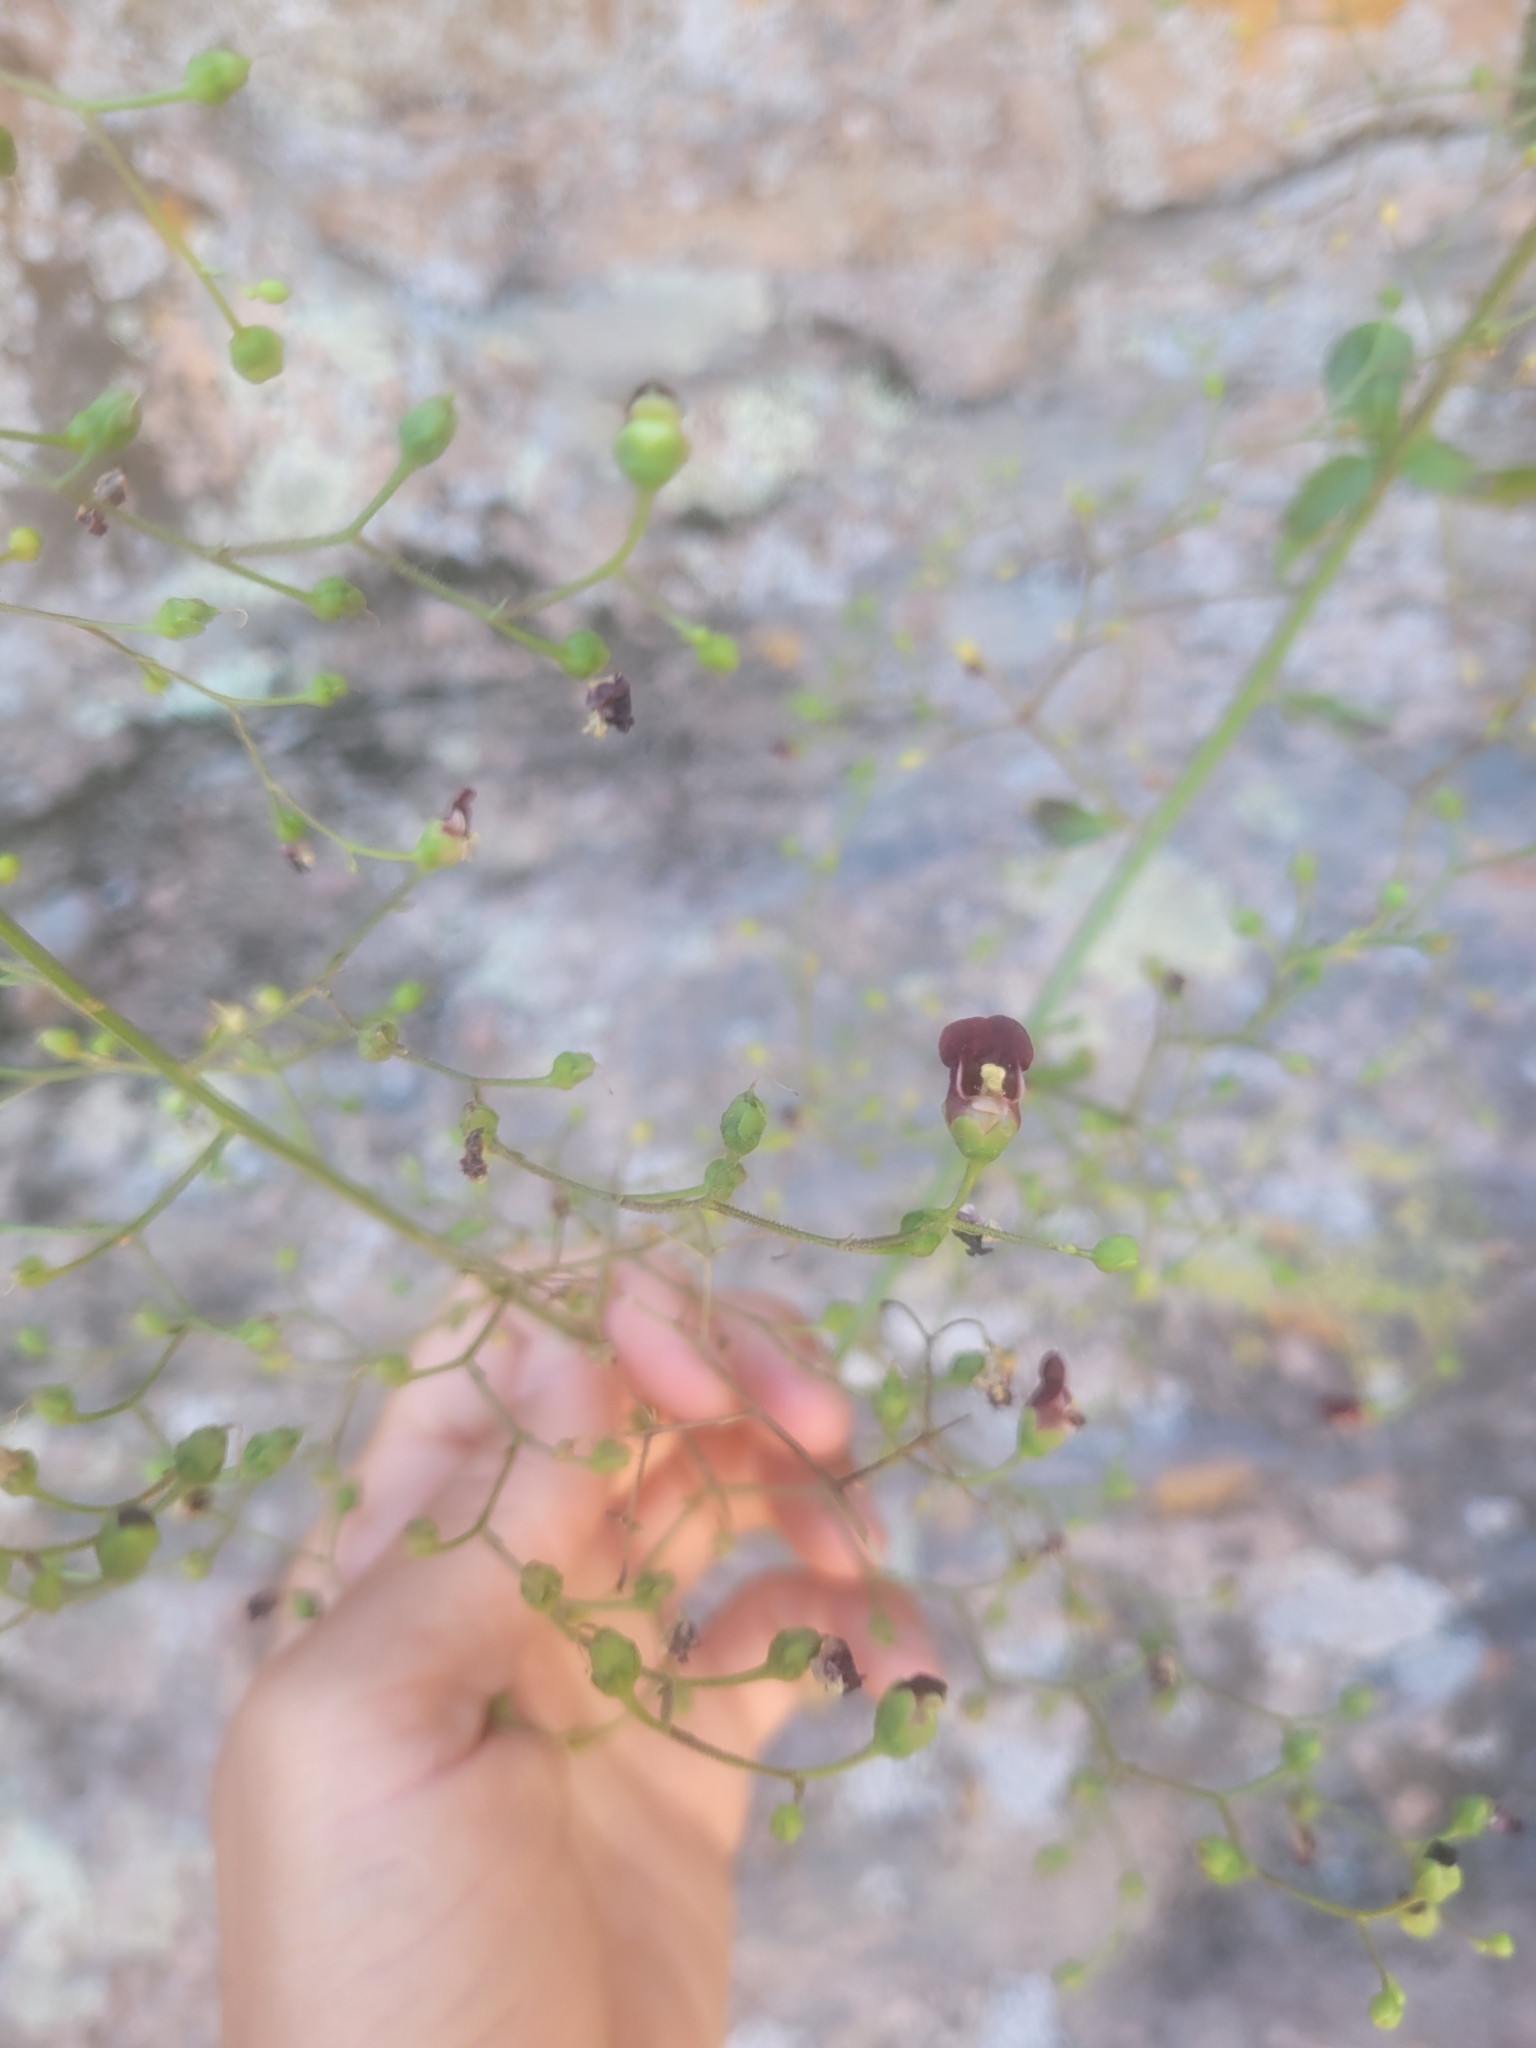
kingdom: Plantae
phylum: Tracheophyta
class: Magnoliopsida
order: Lamiales
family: Scrophulariaceae
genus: Scrophularia
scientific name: Scrophularia californica
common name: California figwort
